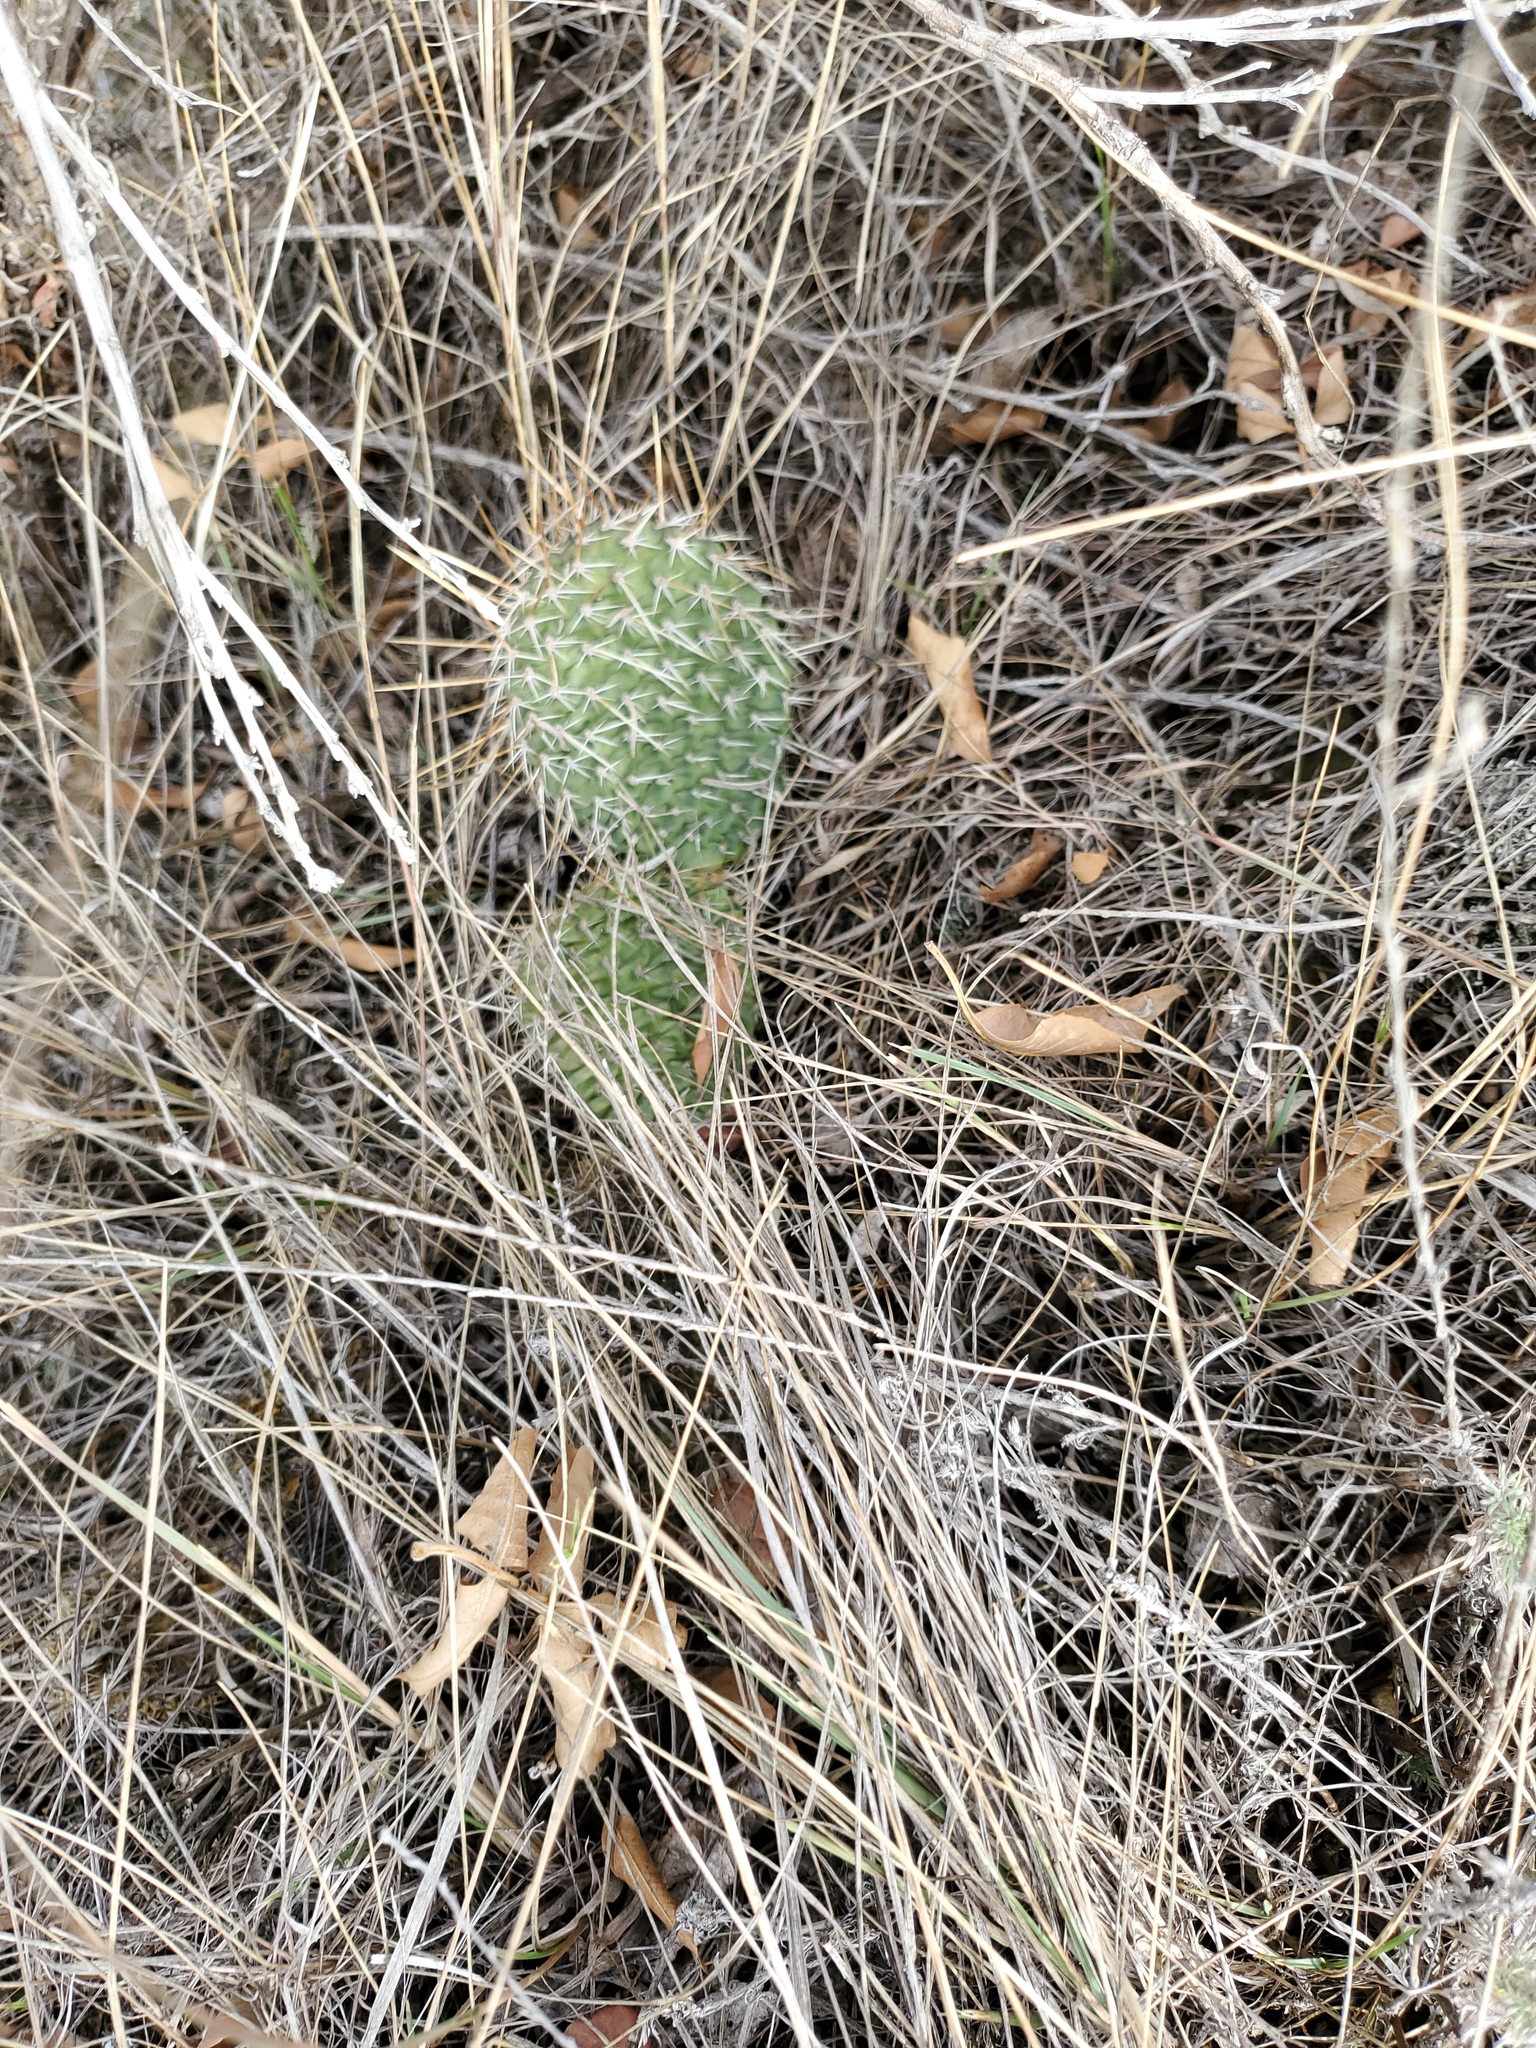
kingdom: Plantae
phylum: Tracheophyta
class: Magnoliopsida
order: Caryophyllales
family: Cactaceae
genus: Opuntia
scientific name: Opuntia polyacantha
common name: Plains prickly-pear
